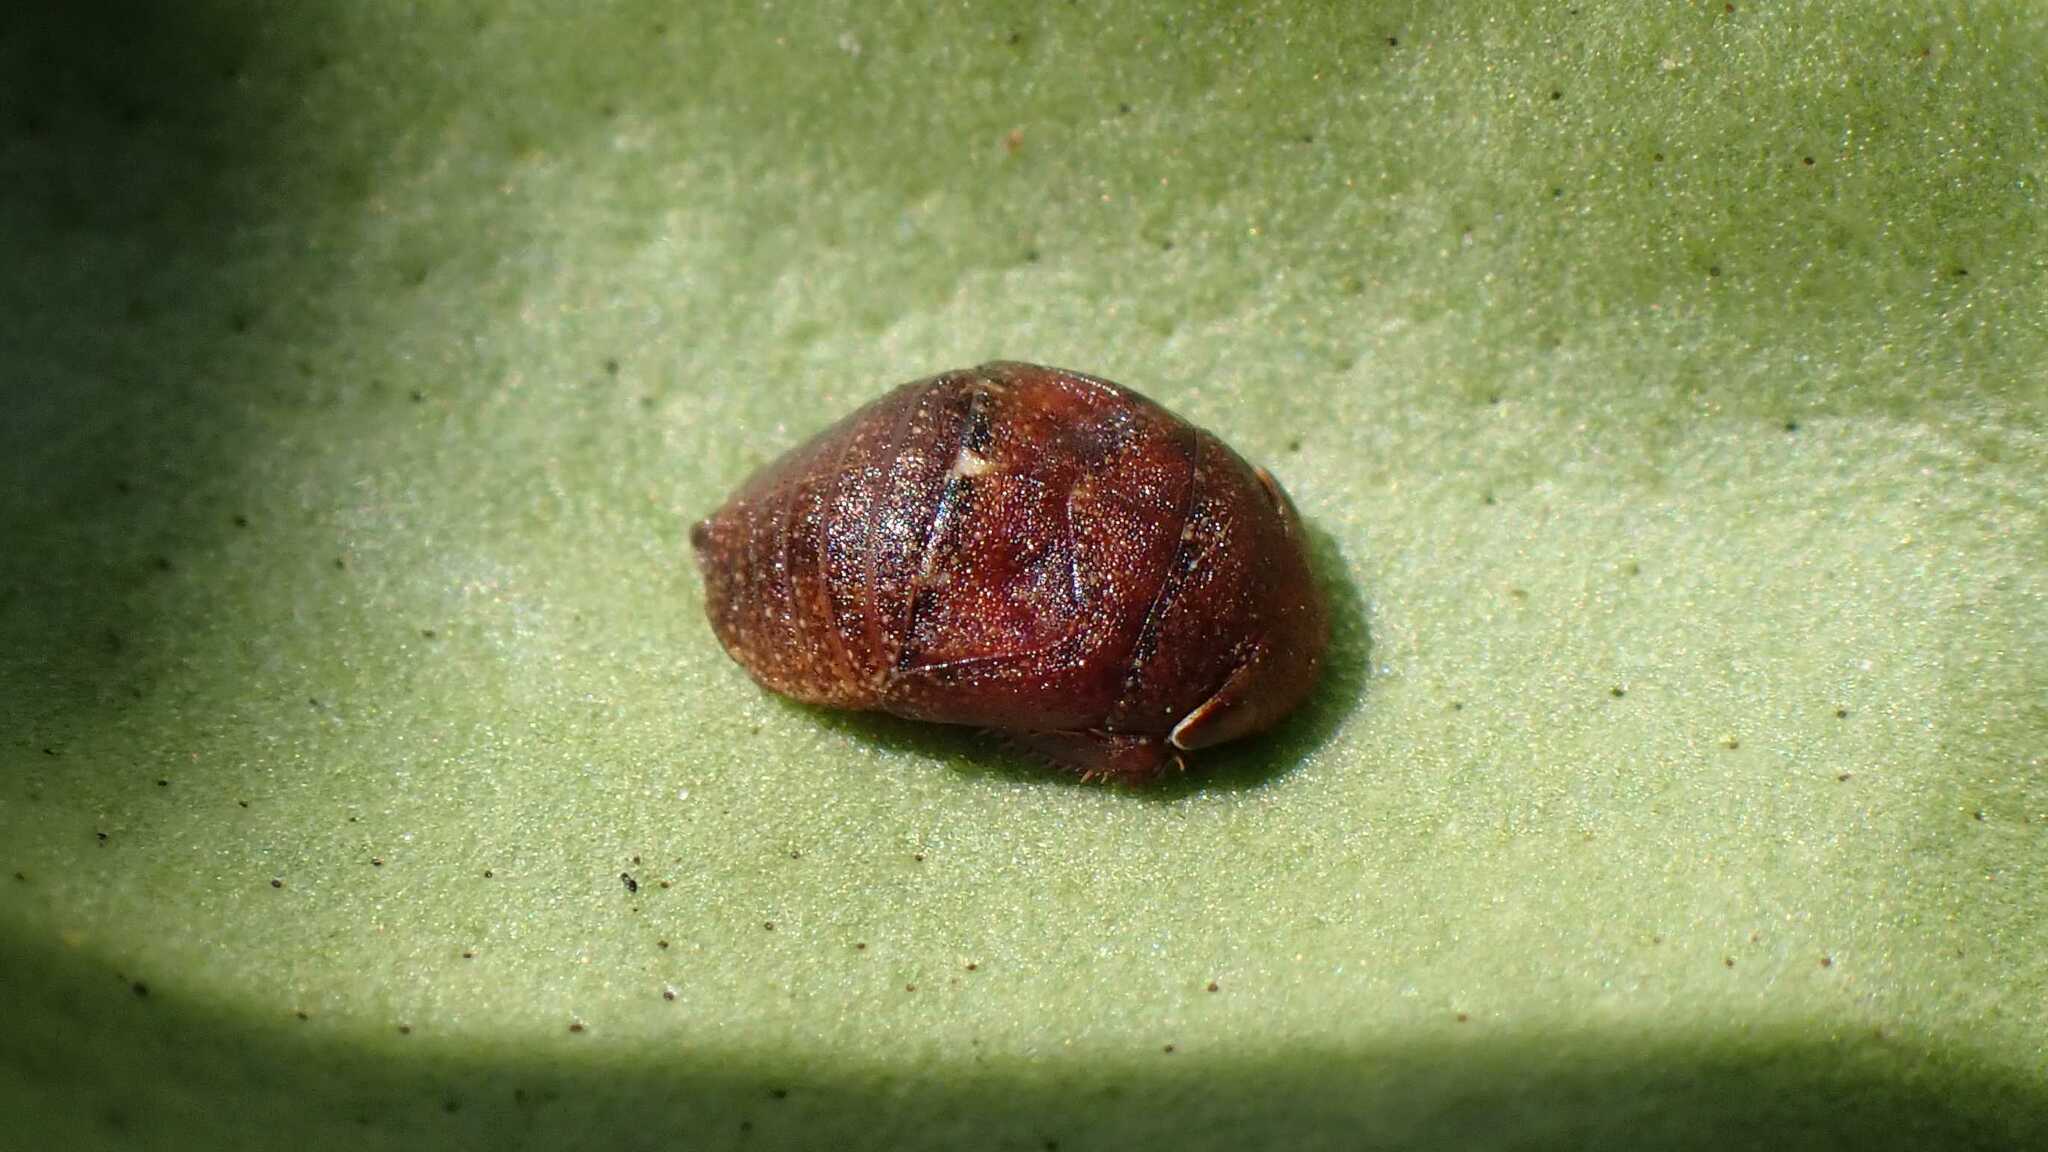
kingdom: Animalia
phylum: Arthropoda
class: Insecta
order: Hemiptera
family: Cicadellidae
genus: Penthimia
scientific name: Penthimia nigra
